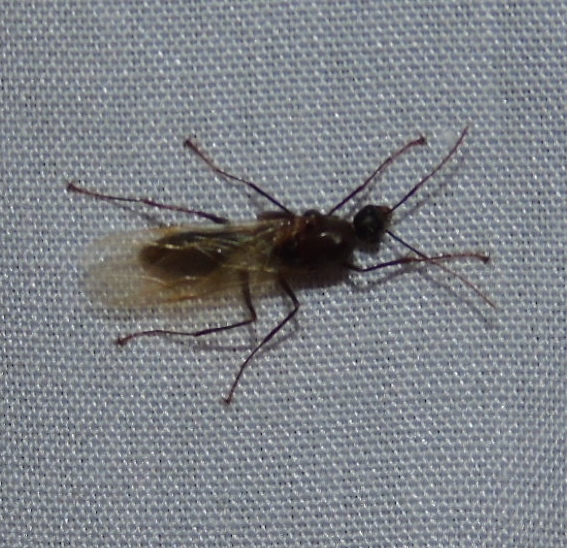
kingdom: Animalia
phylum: Arthropoda
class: Insecta
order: Hymenoptera
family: Formicidae
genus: Camponotus
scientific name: Camponotus
